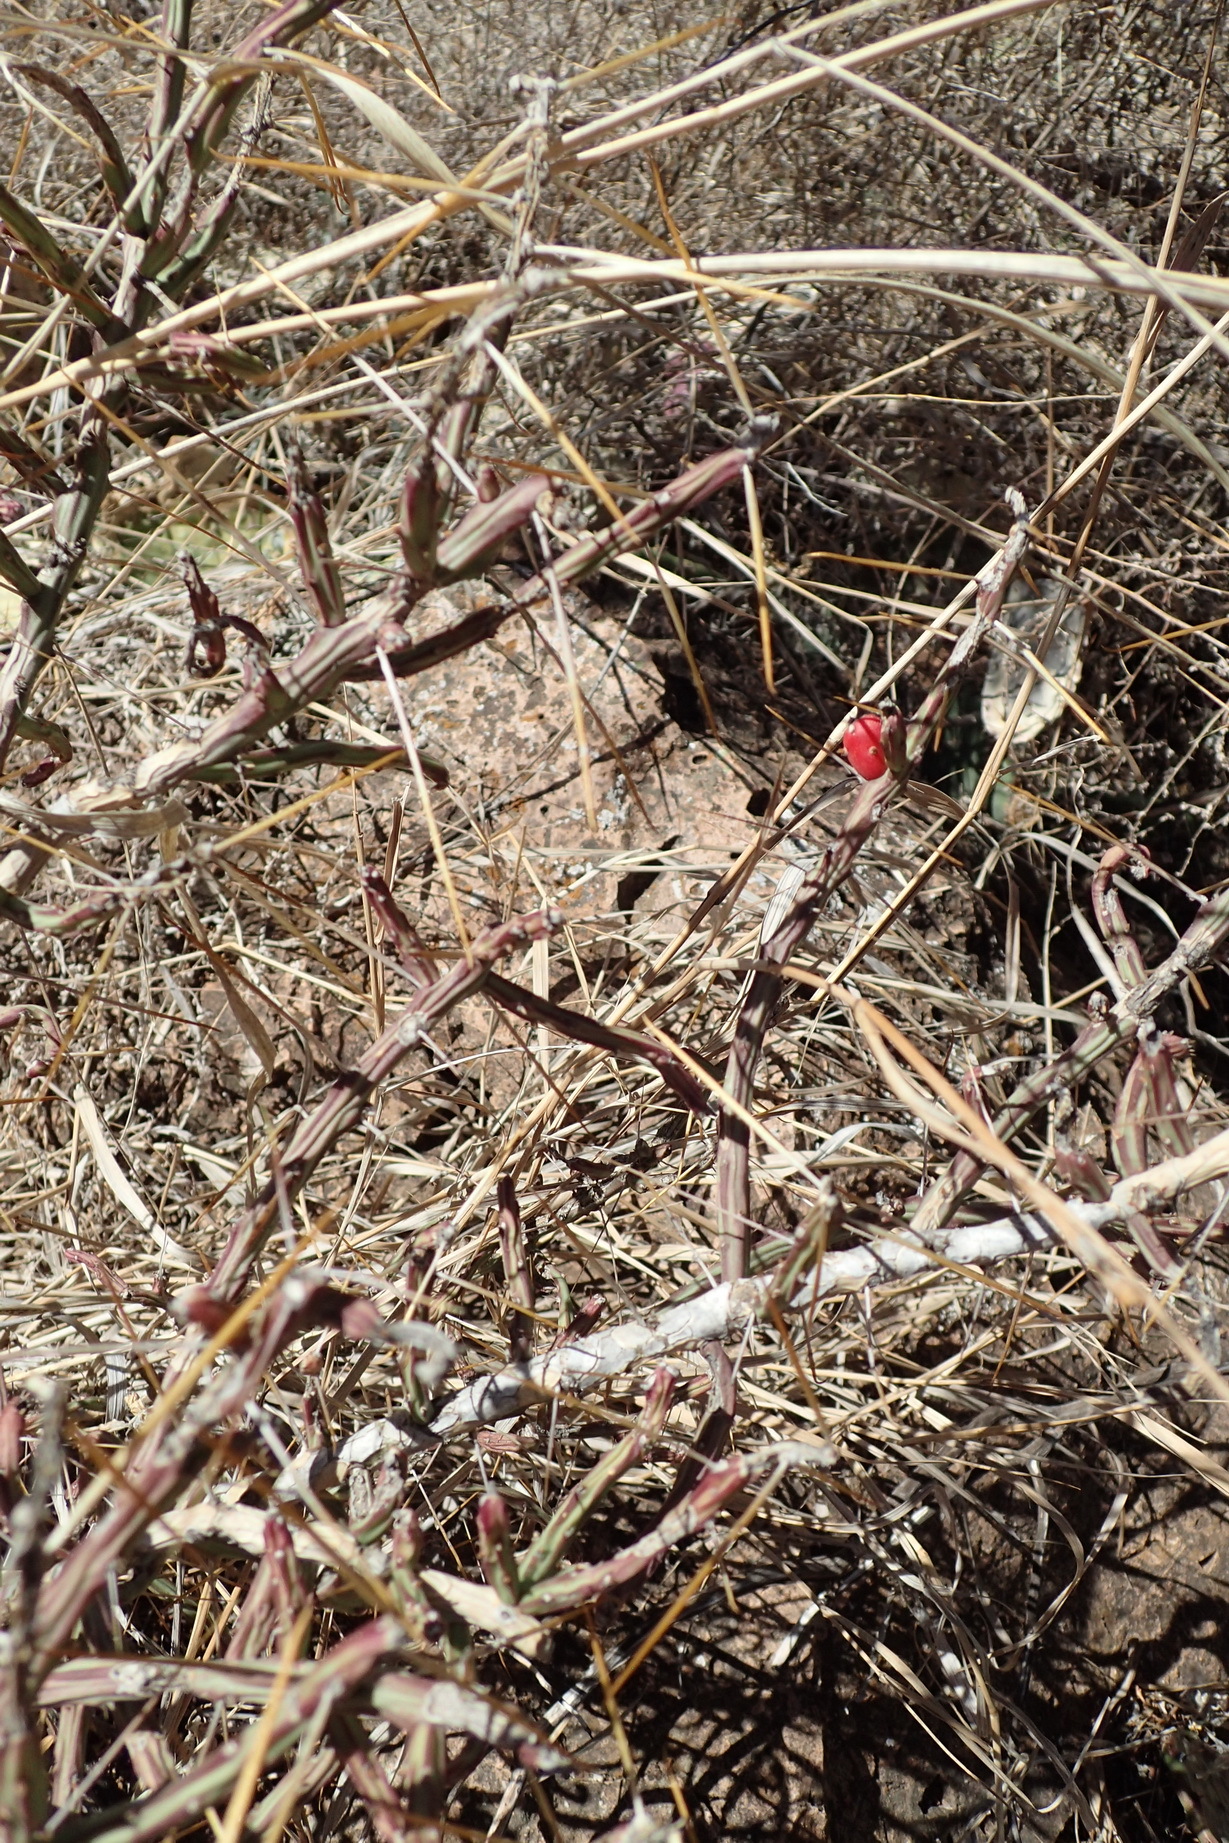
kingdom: Plantae
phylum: Tracheophyta
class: Magnoliopsida
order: Caryophyllales
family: Cactaceae
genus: Cylindropuntia
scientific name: Cylindropuntia leptocaulis
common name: Christmas cactus
